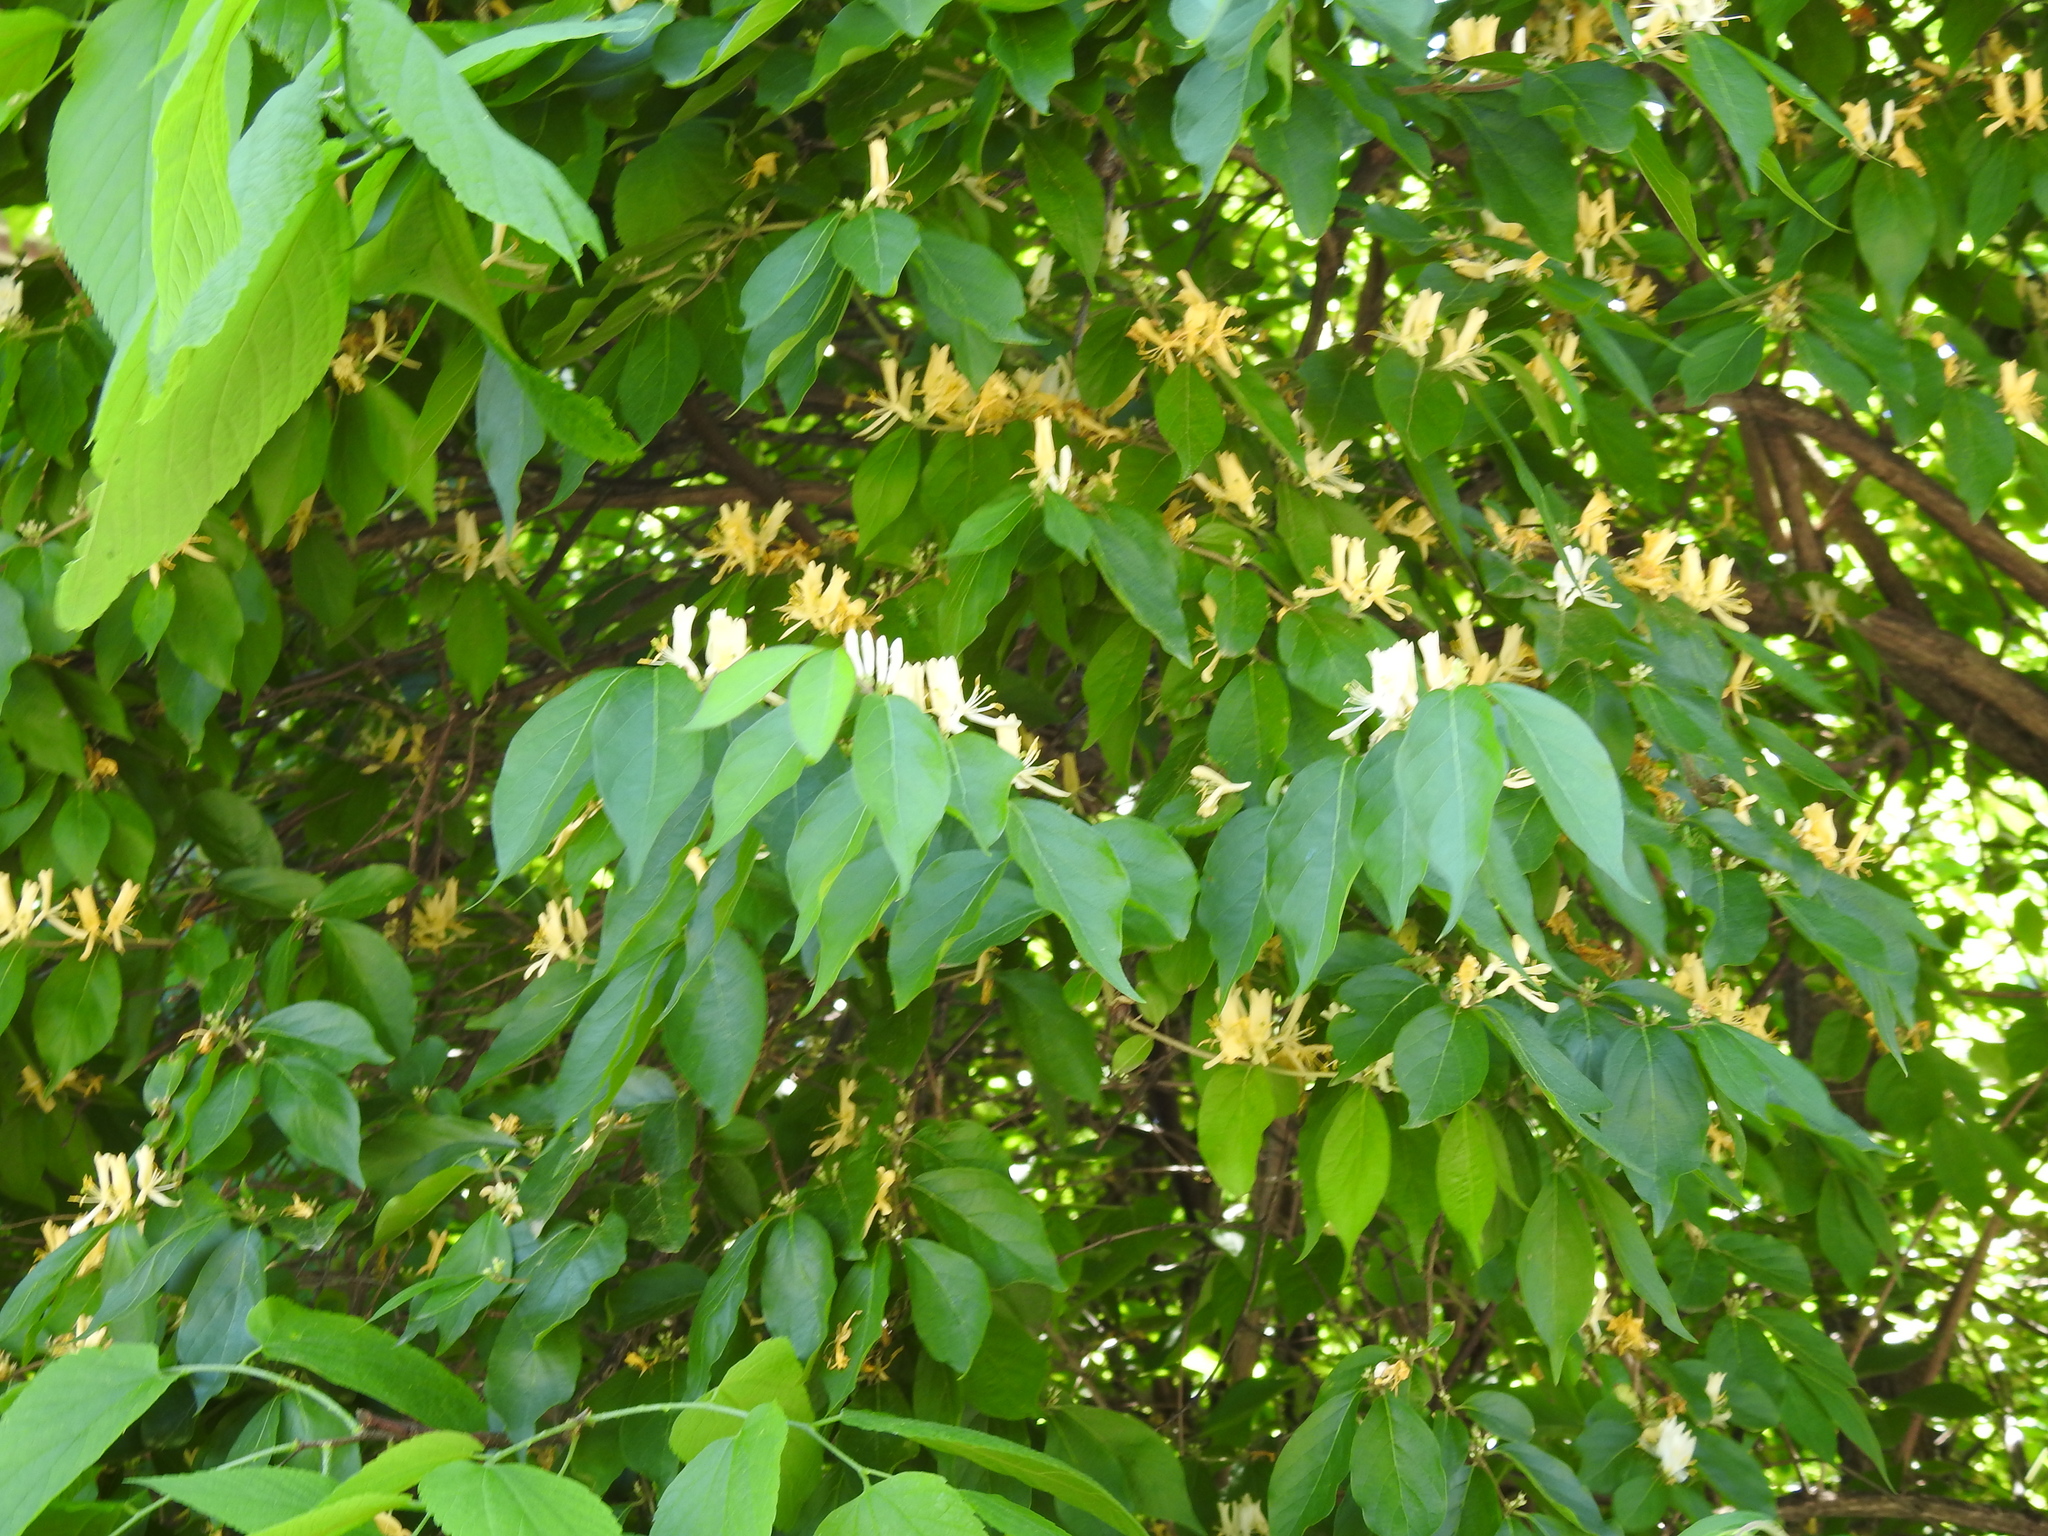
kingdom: Plantae
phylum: Tracheophyta
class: Magnoliopsida
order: Dipsacales
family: Caprifoliaceae
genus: Lonicera
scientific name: Lonicera maackii
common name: Amur honeysuckle
